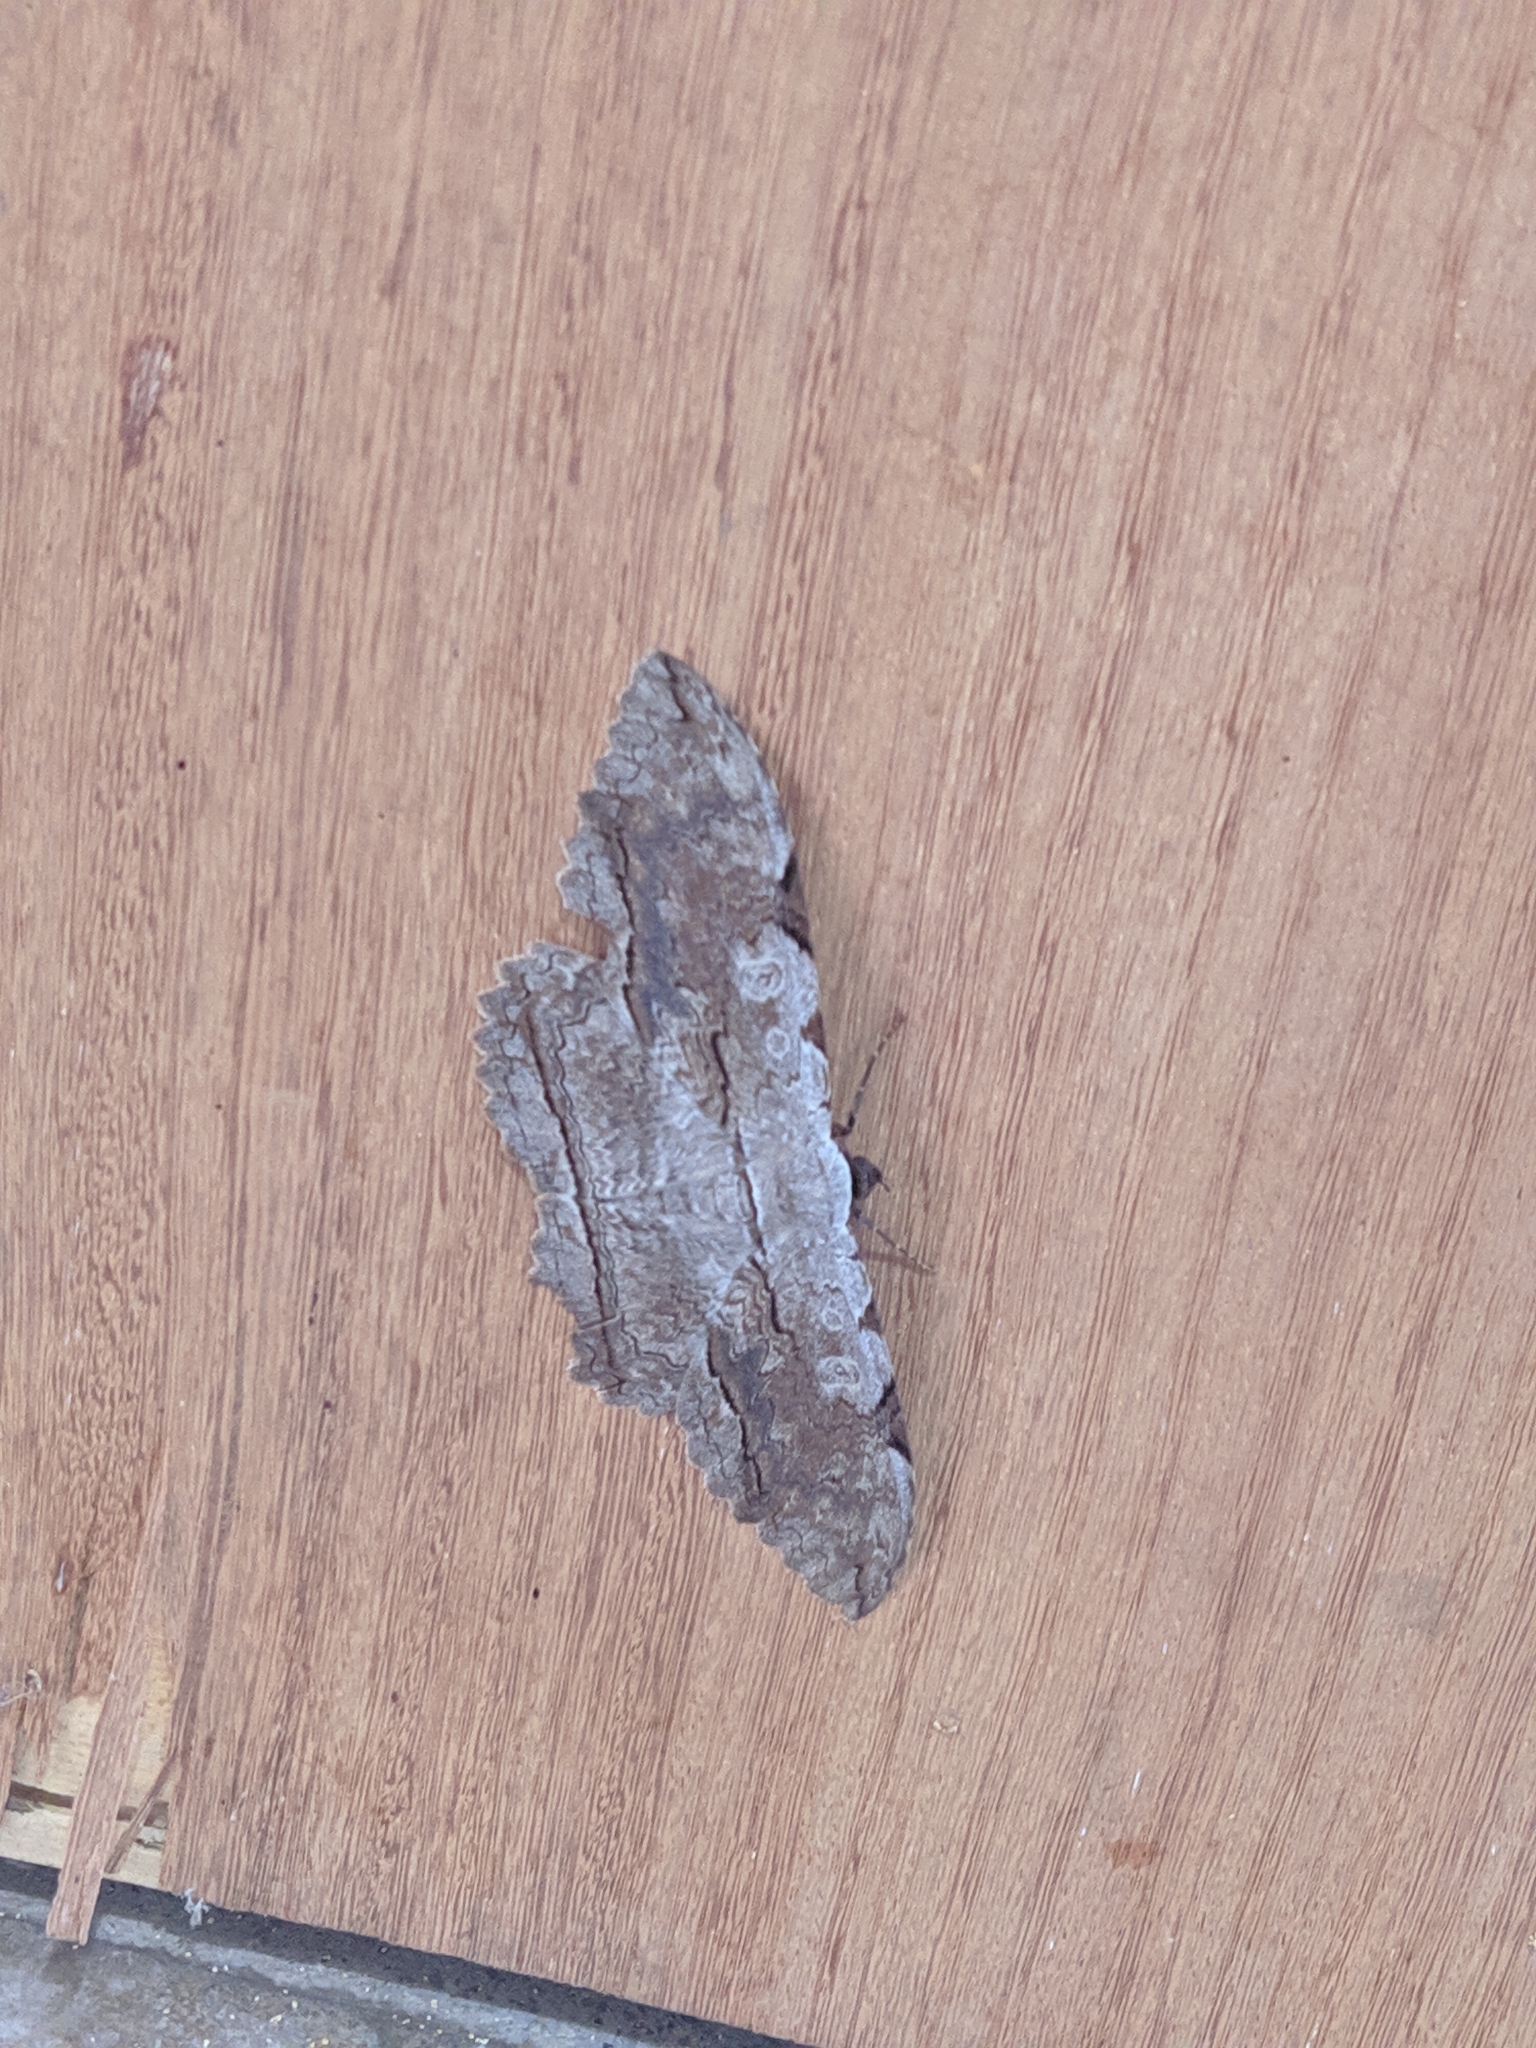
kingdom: Animalia
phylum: Arthropoda
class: Insecta
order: Lepidoptera
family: Erebidae
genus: Thysania
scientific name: Thysania zenobia
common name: Owl moth
